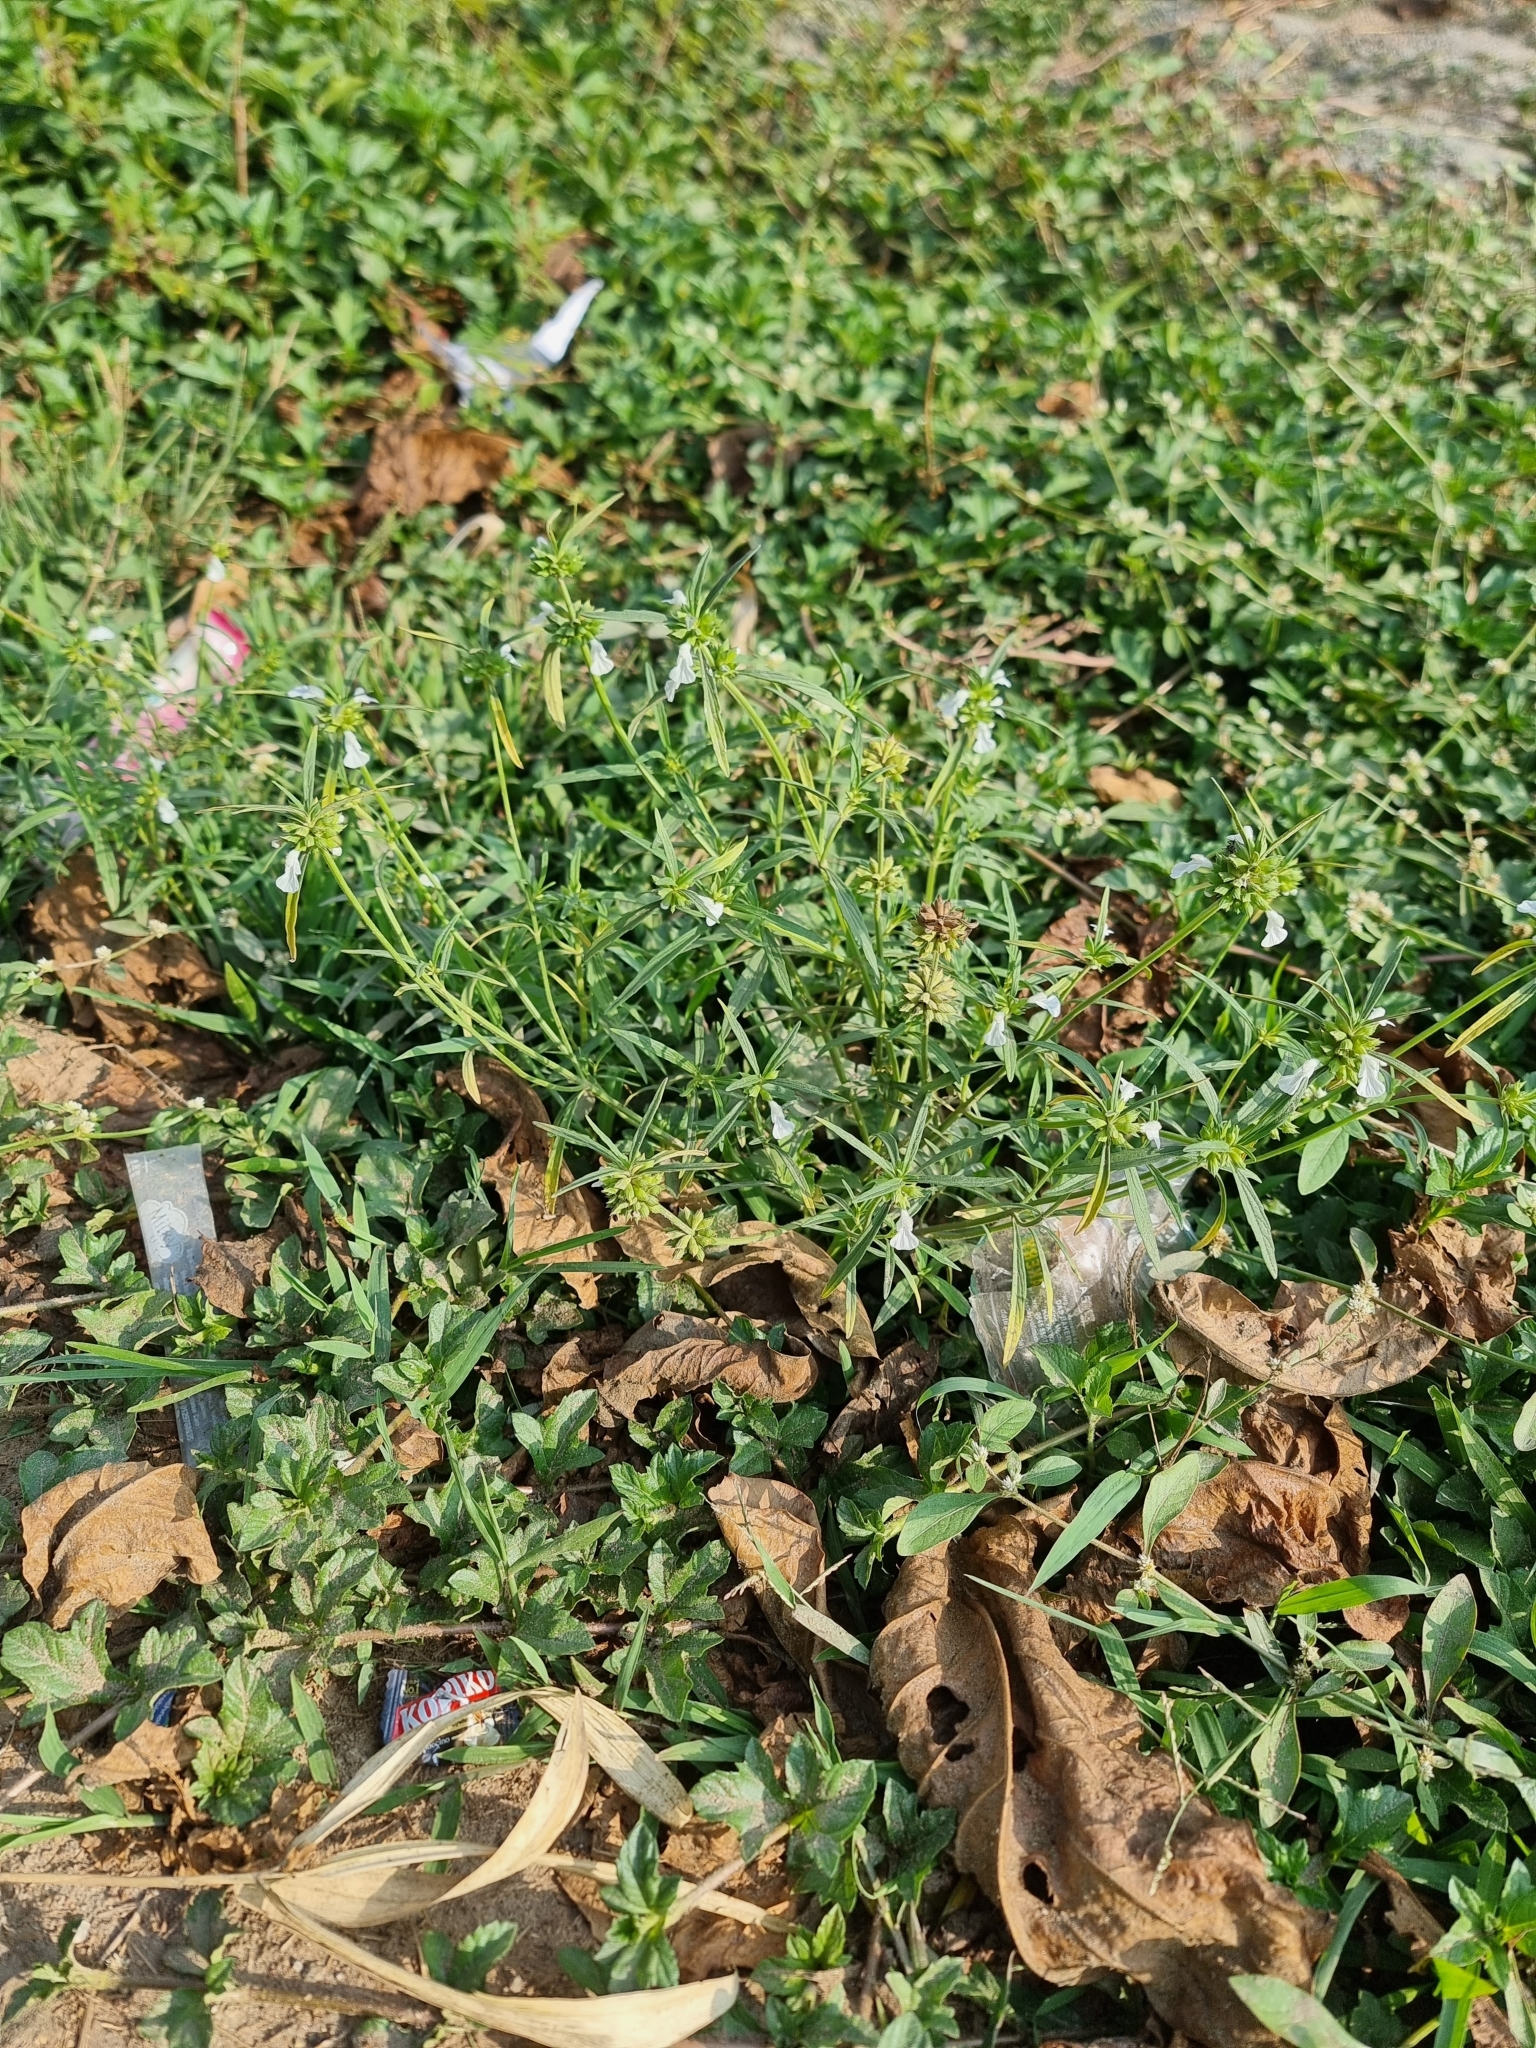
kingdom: Plantae
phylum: Tracheophyta
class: Magnoliopsida
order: Lamiales
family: Lamiaceae
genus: Leucas
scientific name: Leucas aspera
